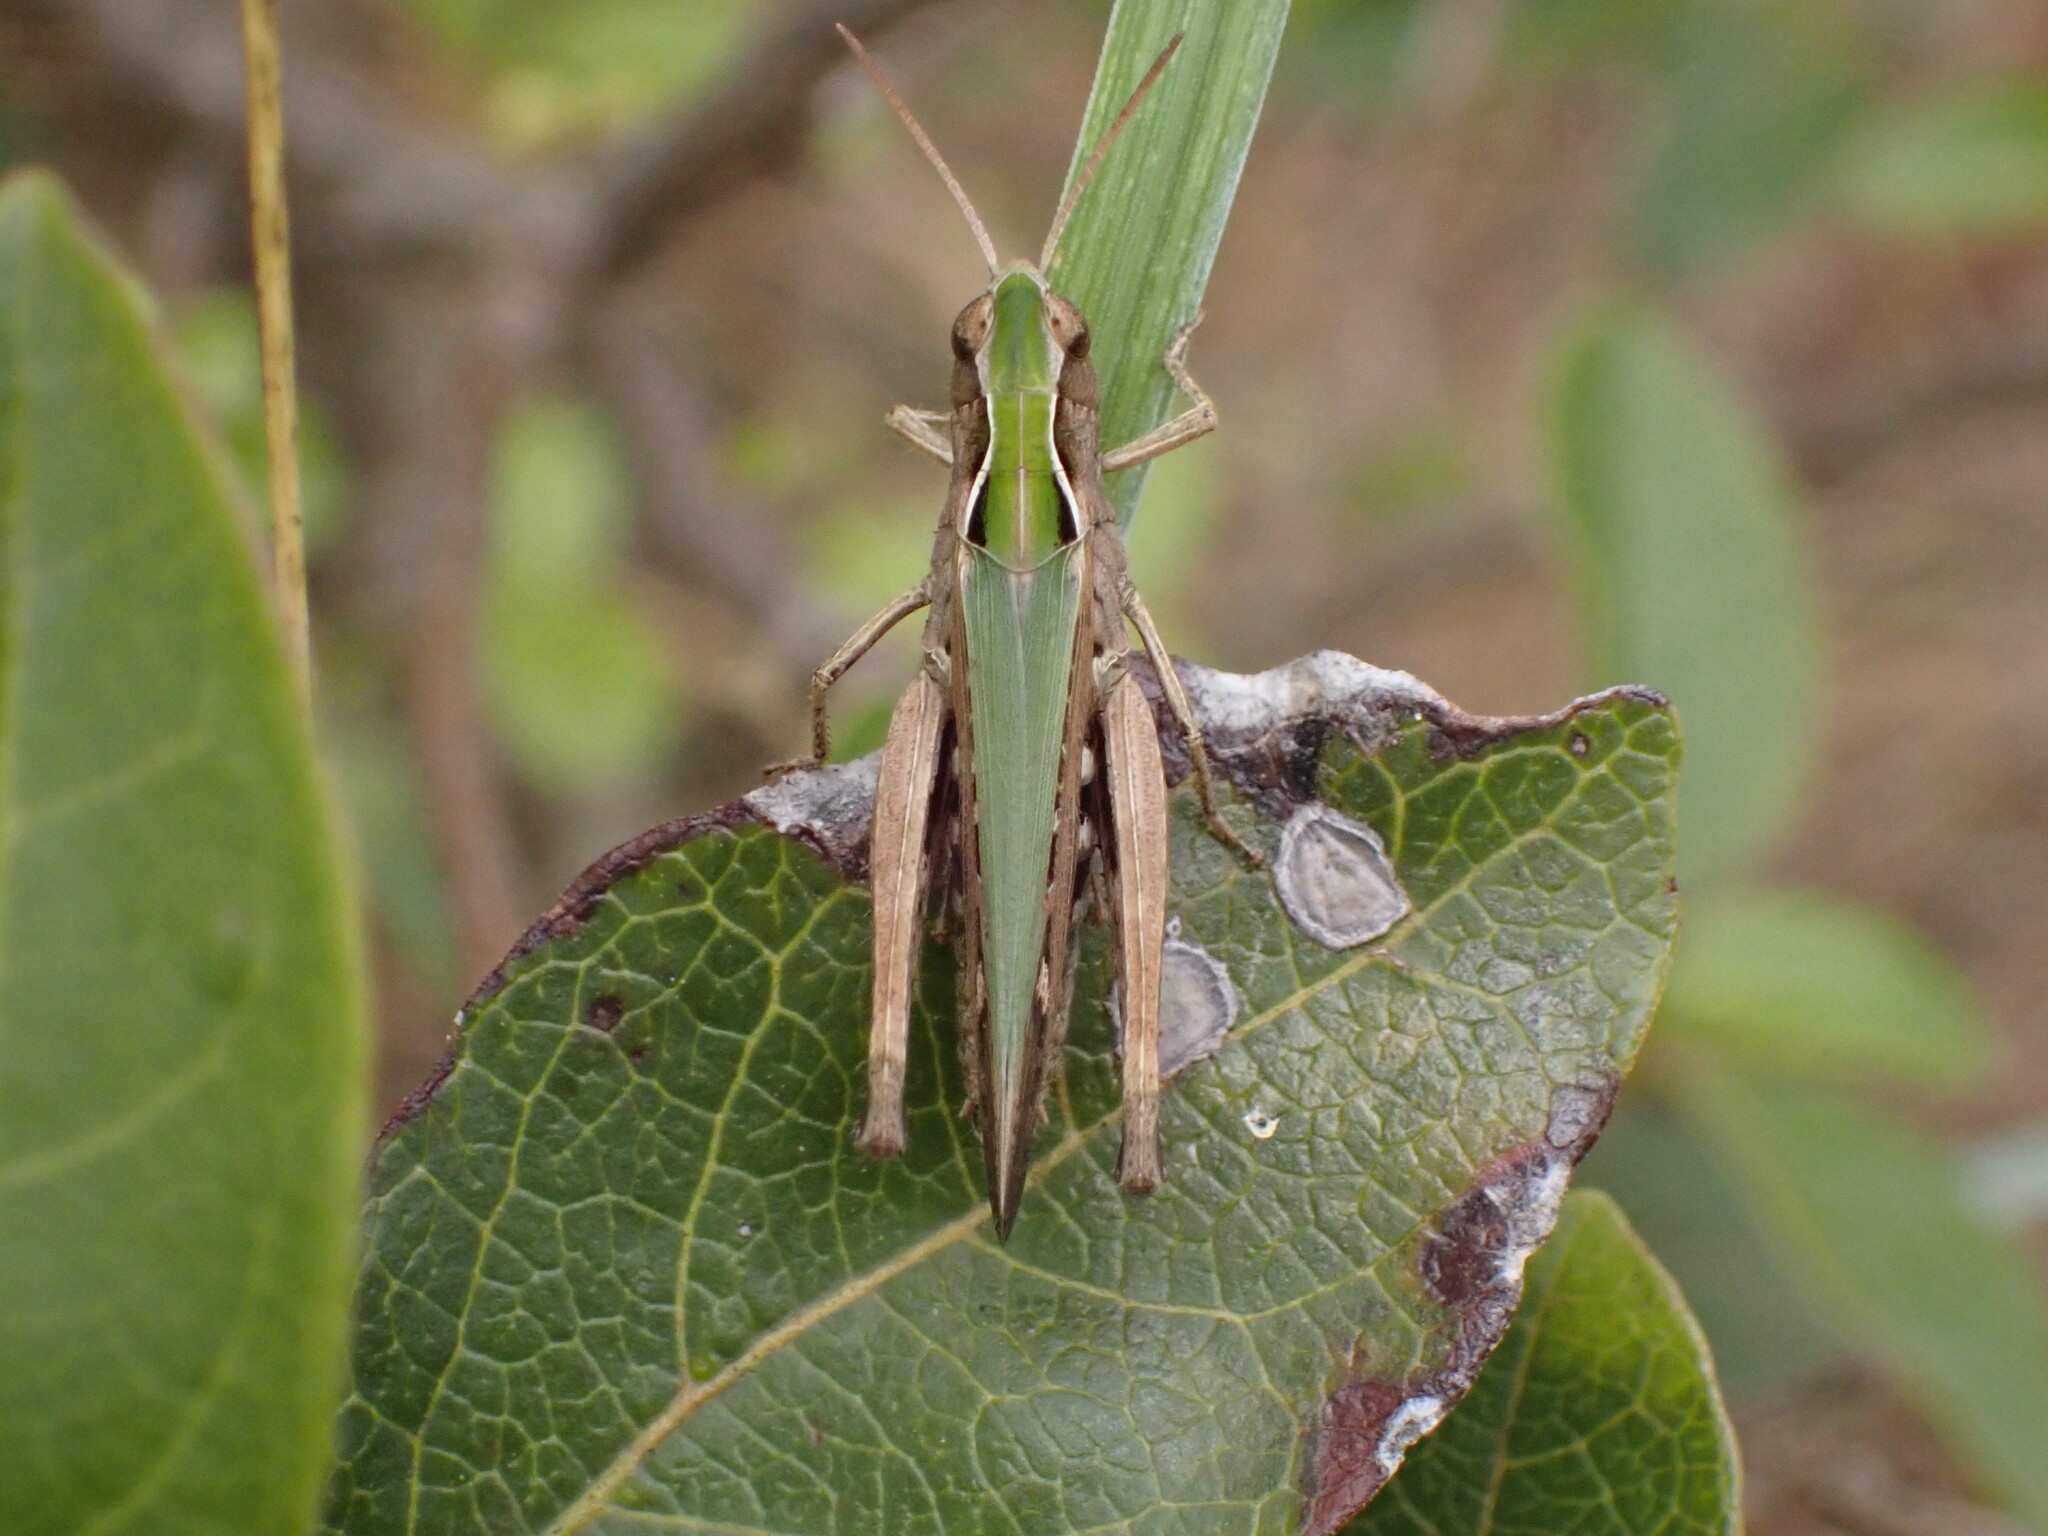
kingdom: Animalia
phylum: Arthropoda
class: Insecta
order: Orthoptera
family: Acrididae
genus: Omocestus
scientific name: Omocestus rufipes
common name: Woodland grasshopper
